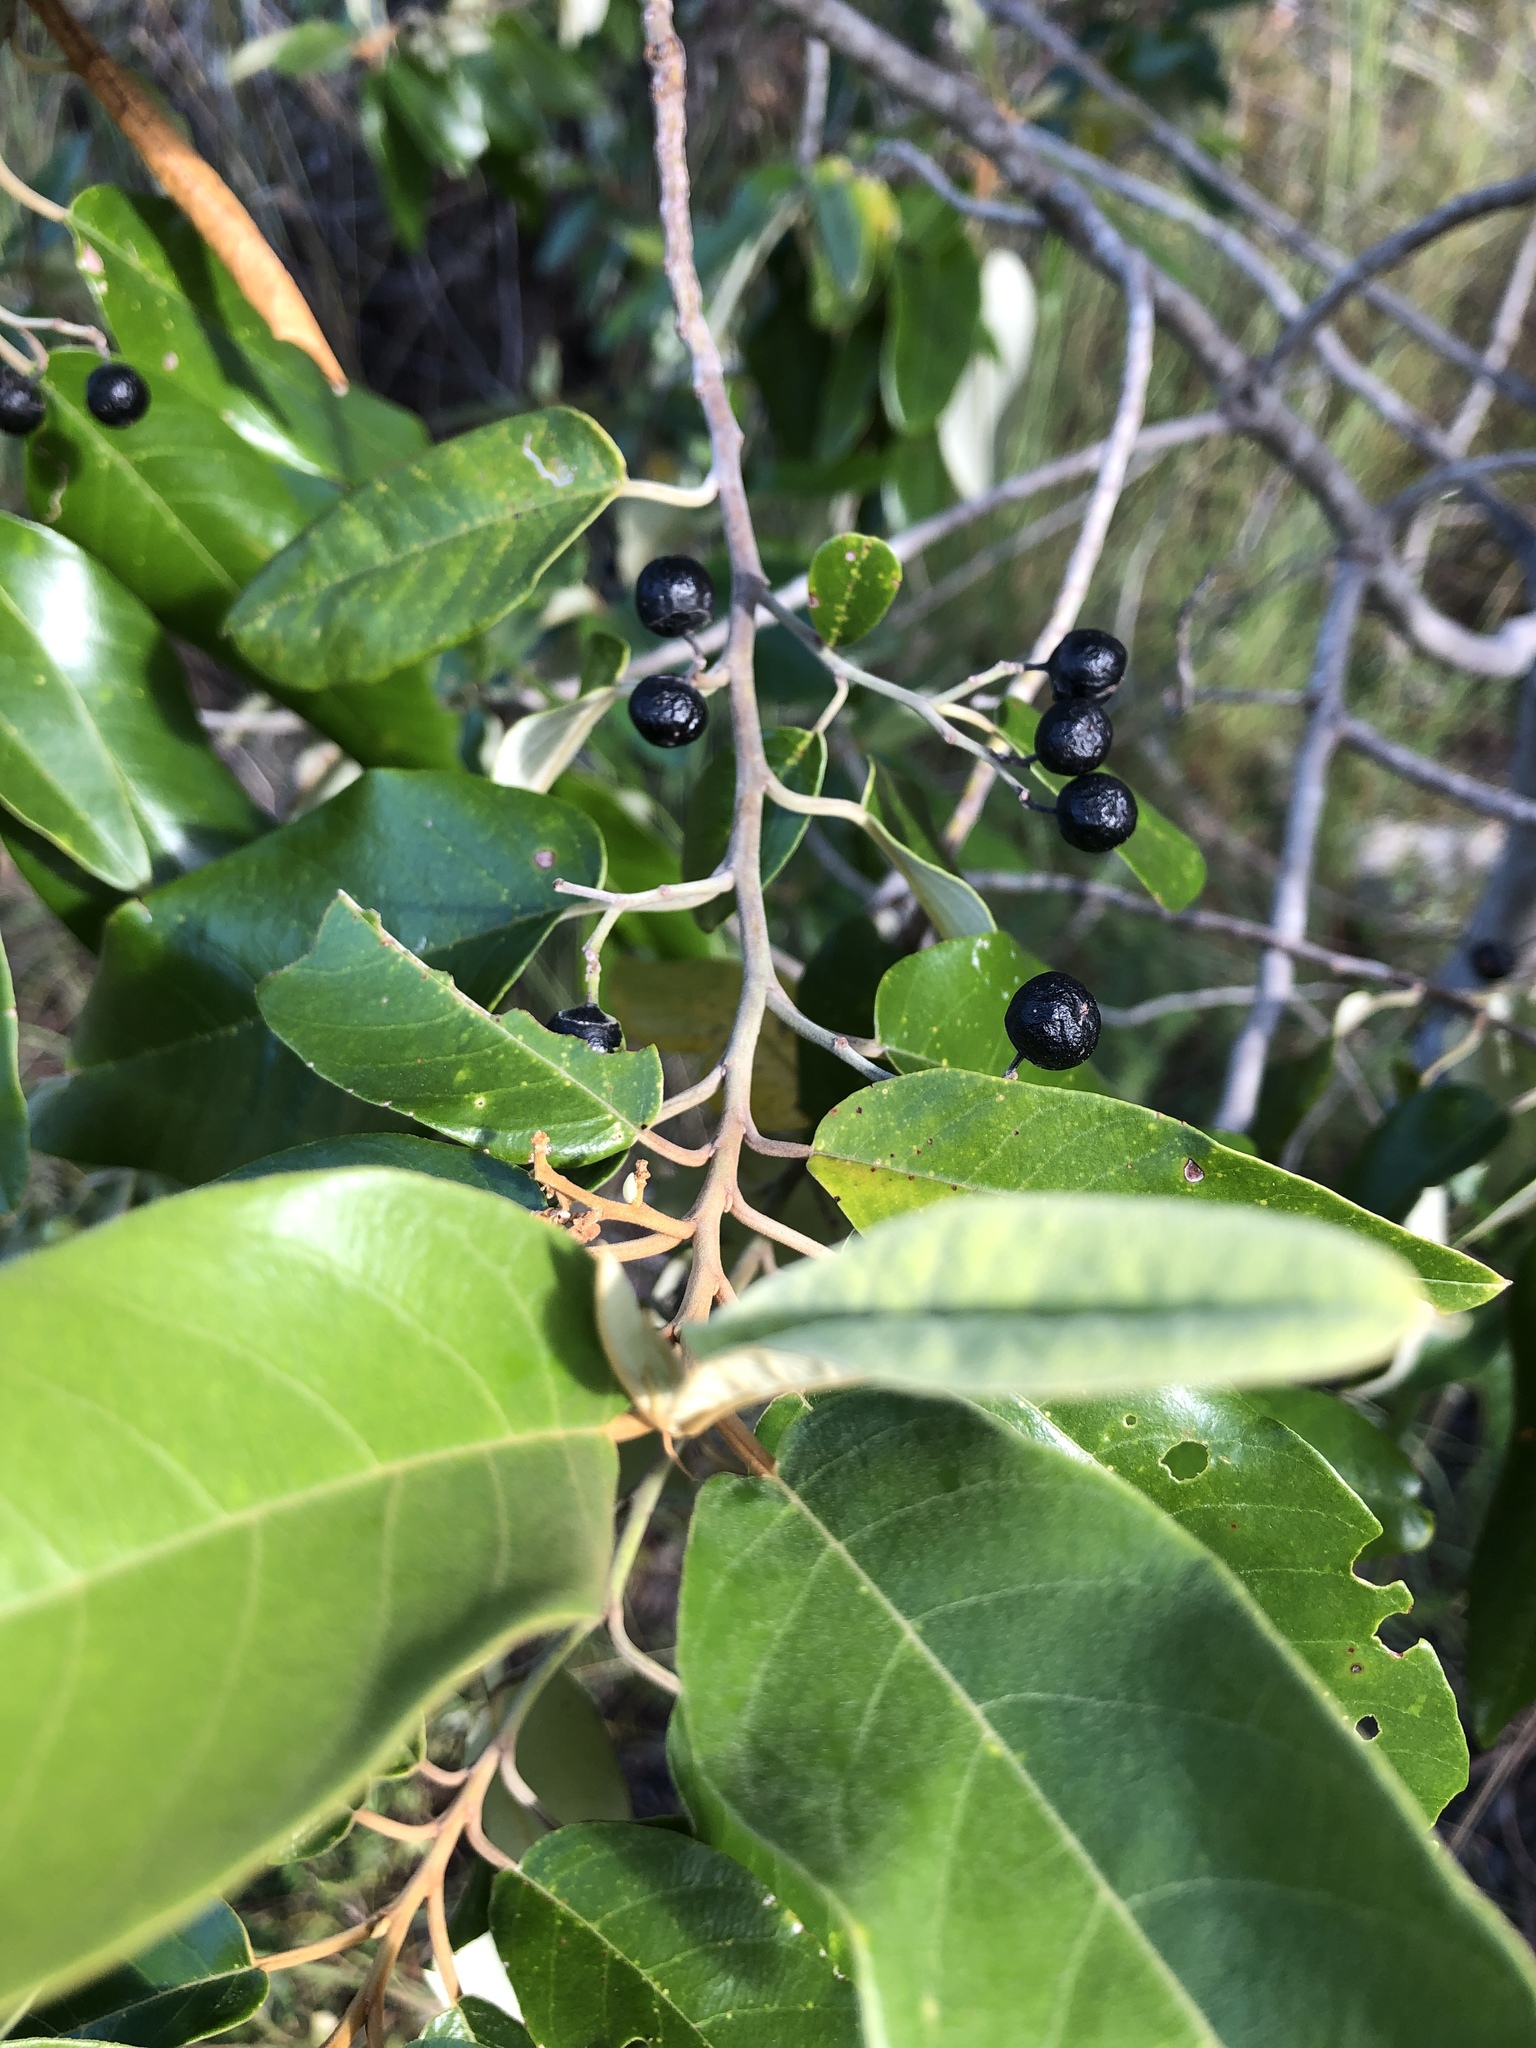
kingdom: Plantae
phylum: Tracheophyta
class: Magnoliopsida
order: Rosales
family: Rhamnaceae
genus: Alphitonia
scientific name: Alphitonia excelsa
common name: Red ash
